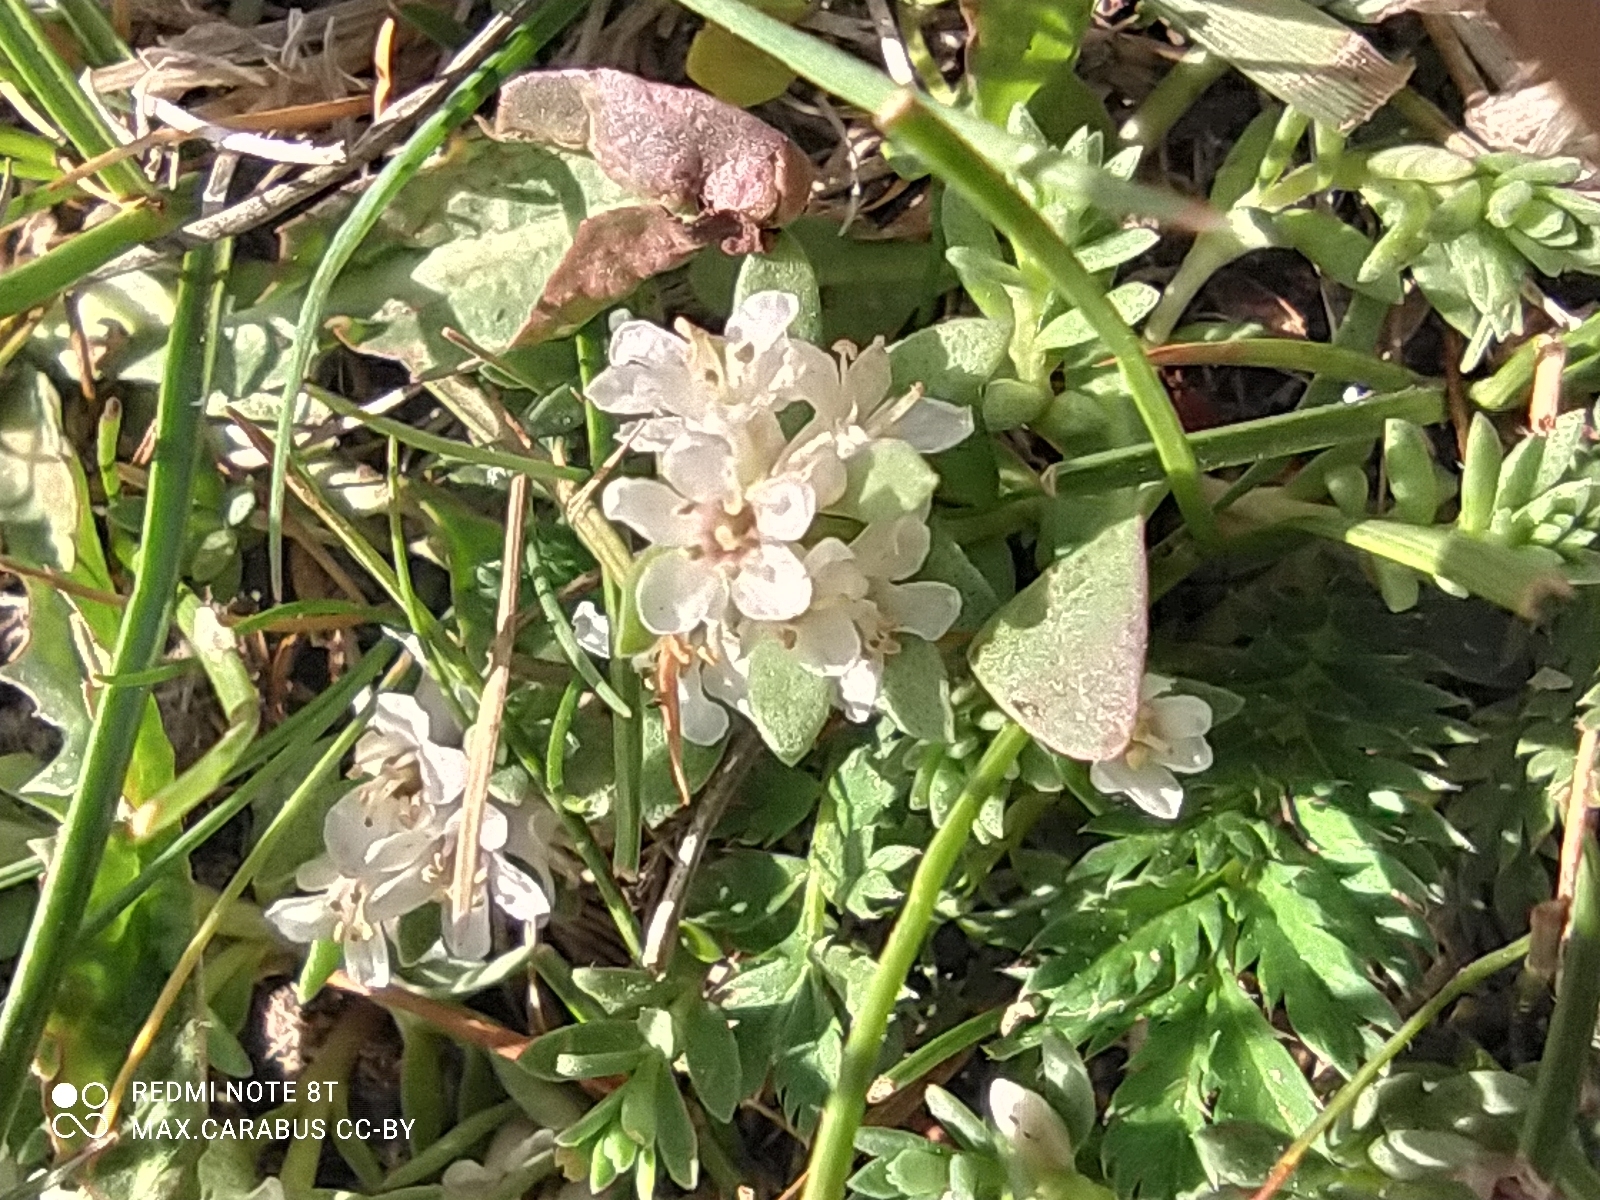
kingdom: Plantae
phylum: Tracheophyta
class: Magnoliopsida
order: Ericales
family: Primulaceae
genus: Lysimachia
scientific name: Lysimachia maritima
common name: Sea milkwort
